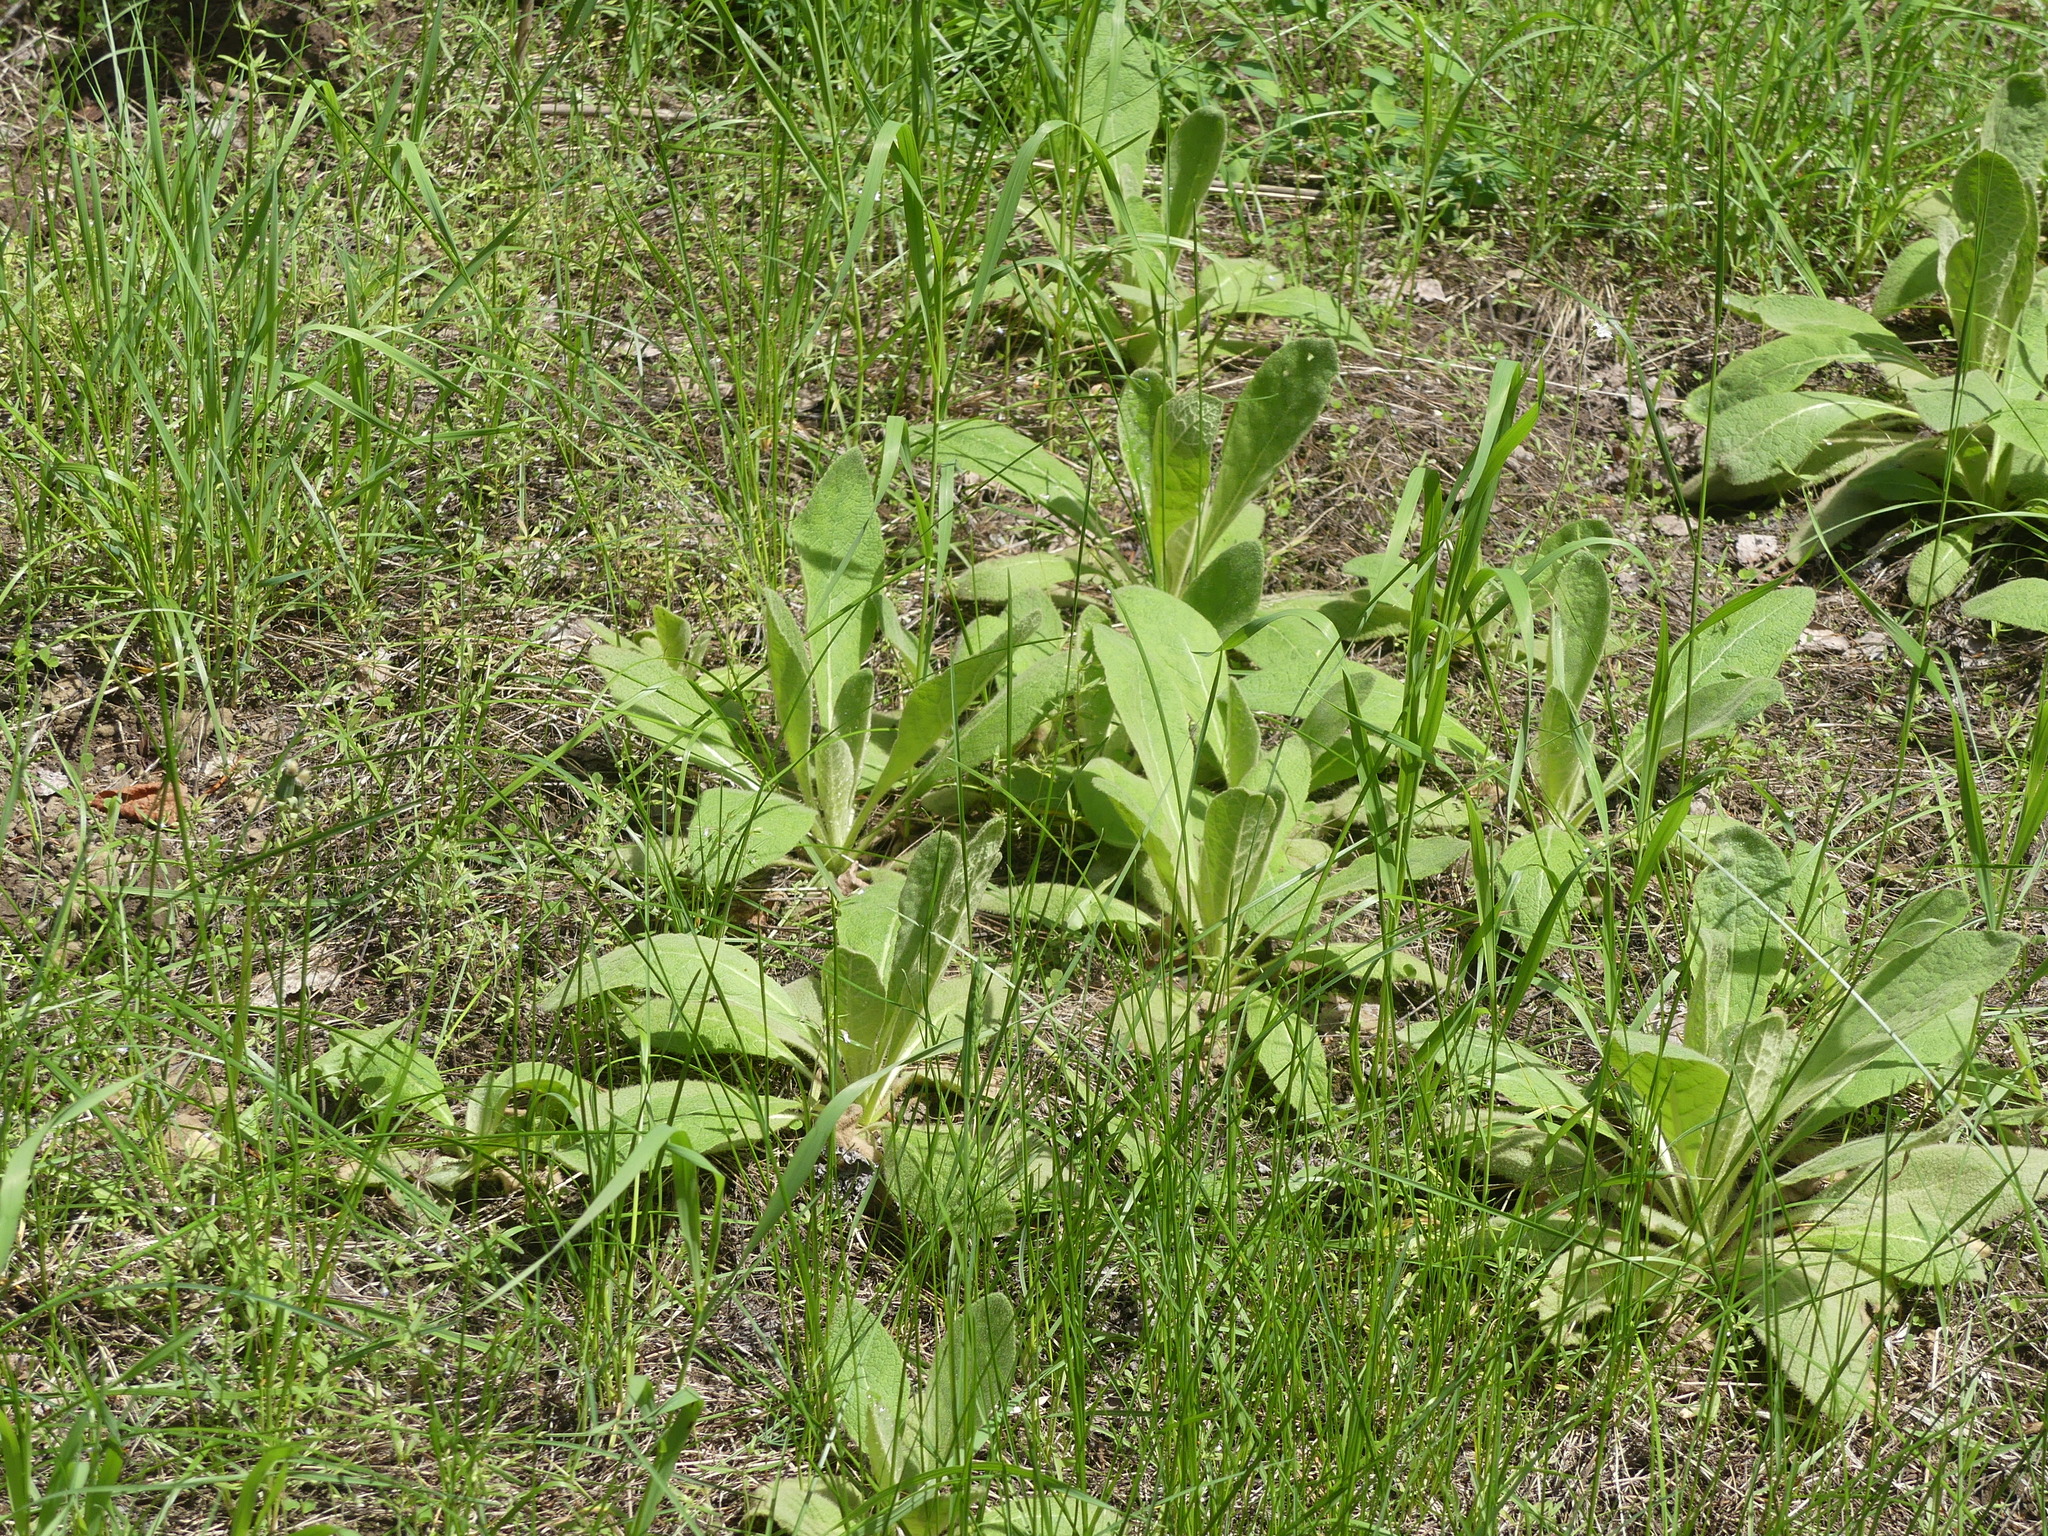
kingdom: Plantae
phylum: Tracheophyta
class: Magnoliopsida
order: Lamiales
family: Scrophulariaceae
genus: Verbascum
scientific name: Verbascum thapsus
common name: Common mullein
